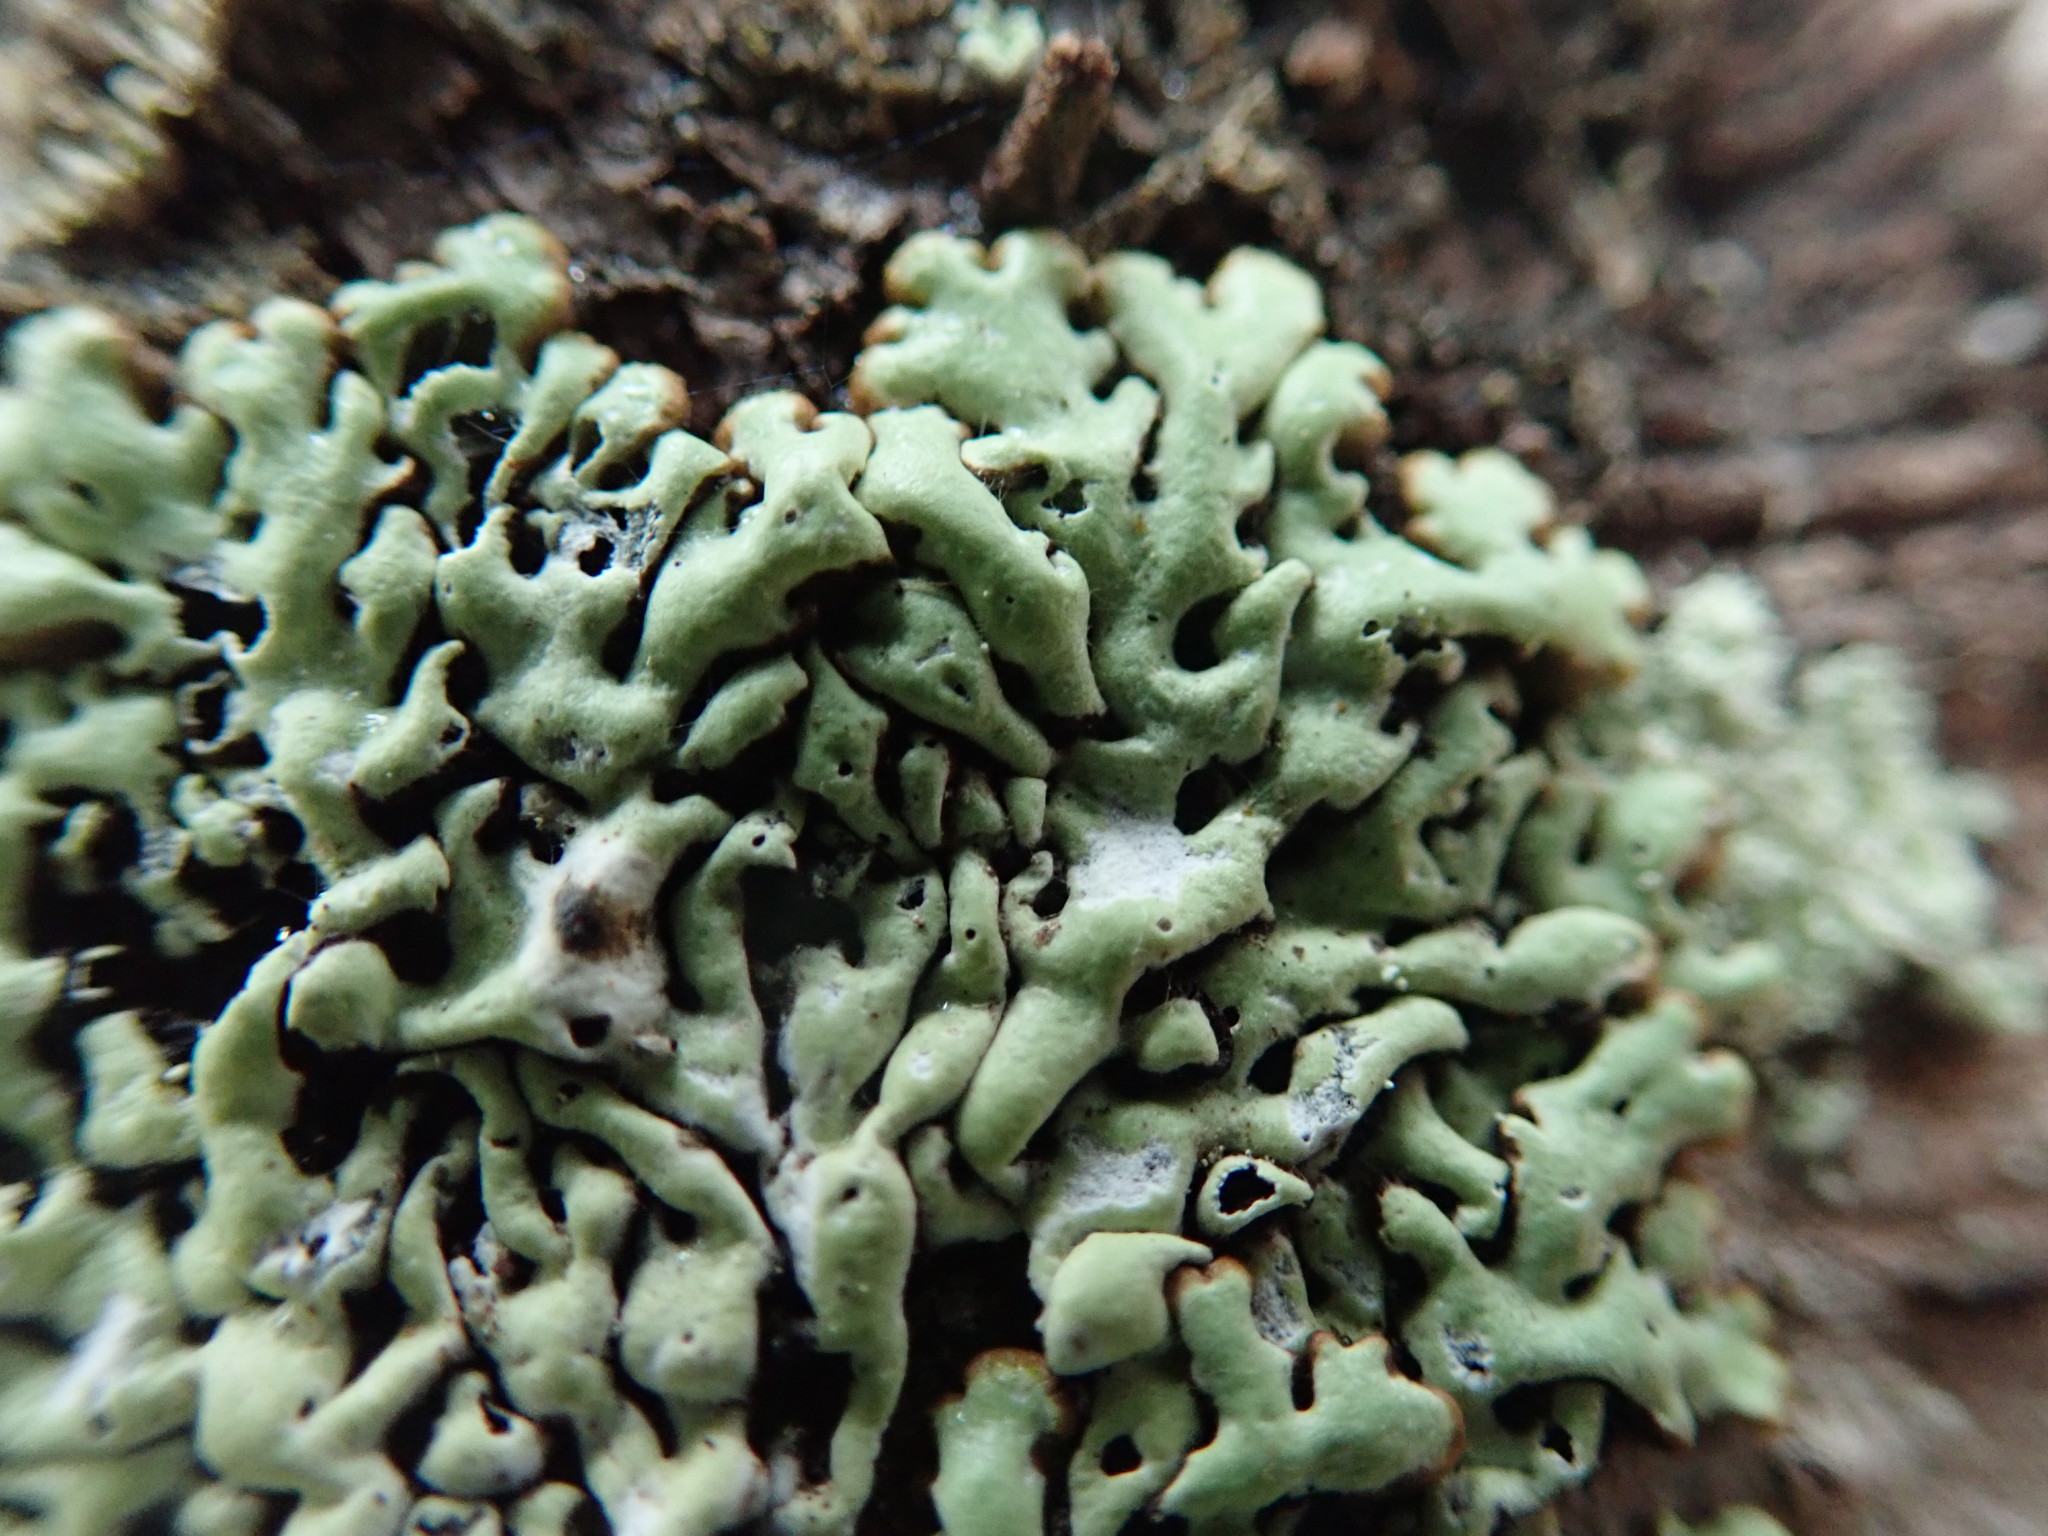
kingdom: Fungi
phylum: Ascomycota
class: Lecanoromycetes
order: Lecanorales
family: Parmeliaceae
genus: Menegazzia
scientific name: Menegazzia terebrata
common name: Magic treeflute lichen
